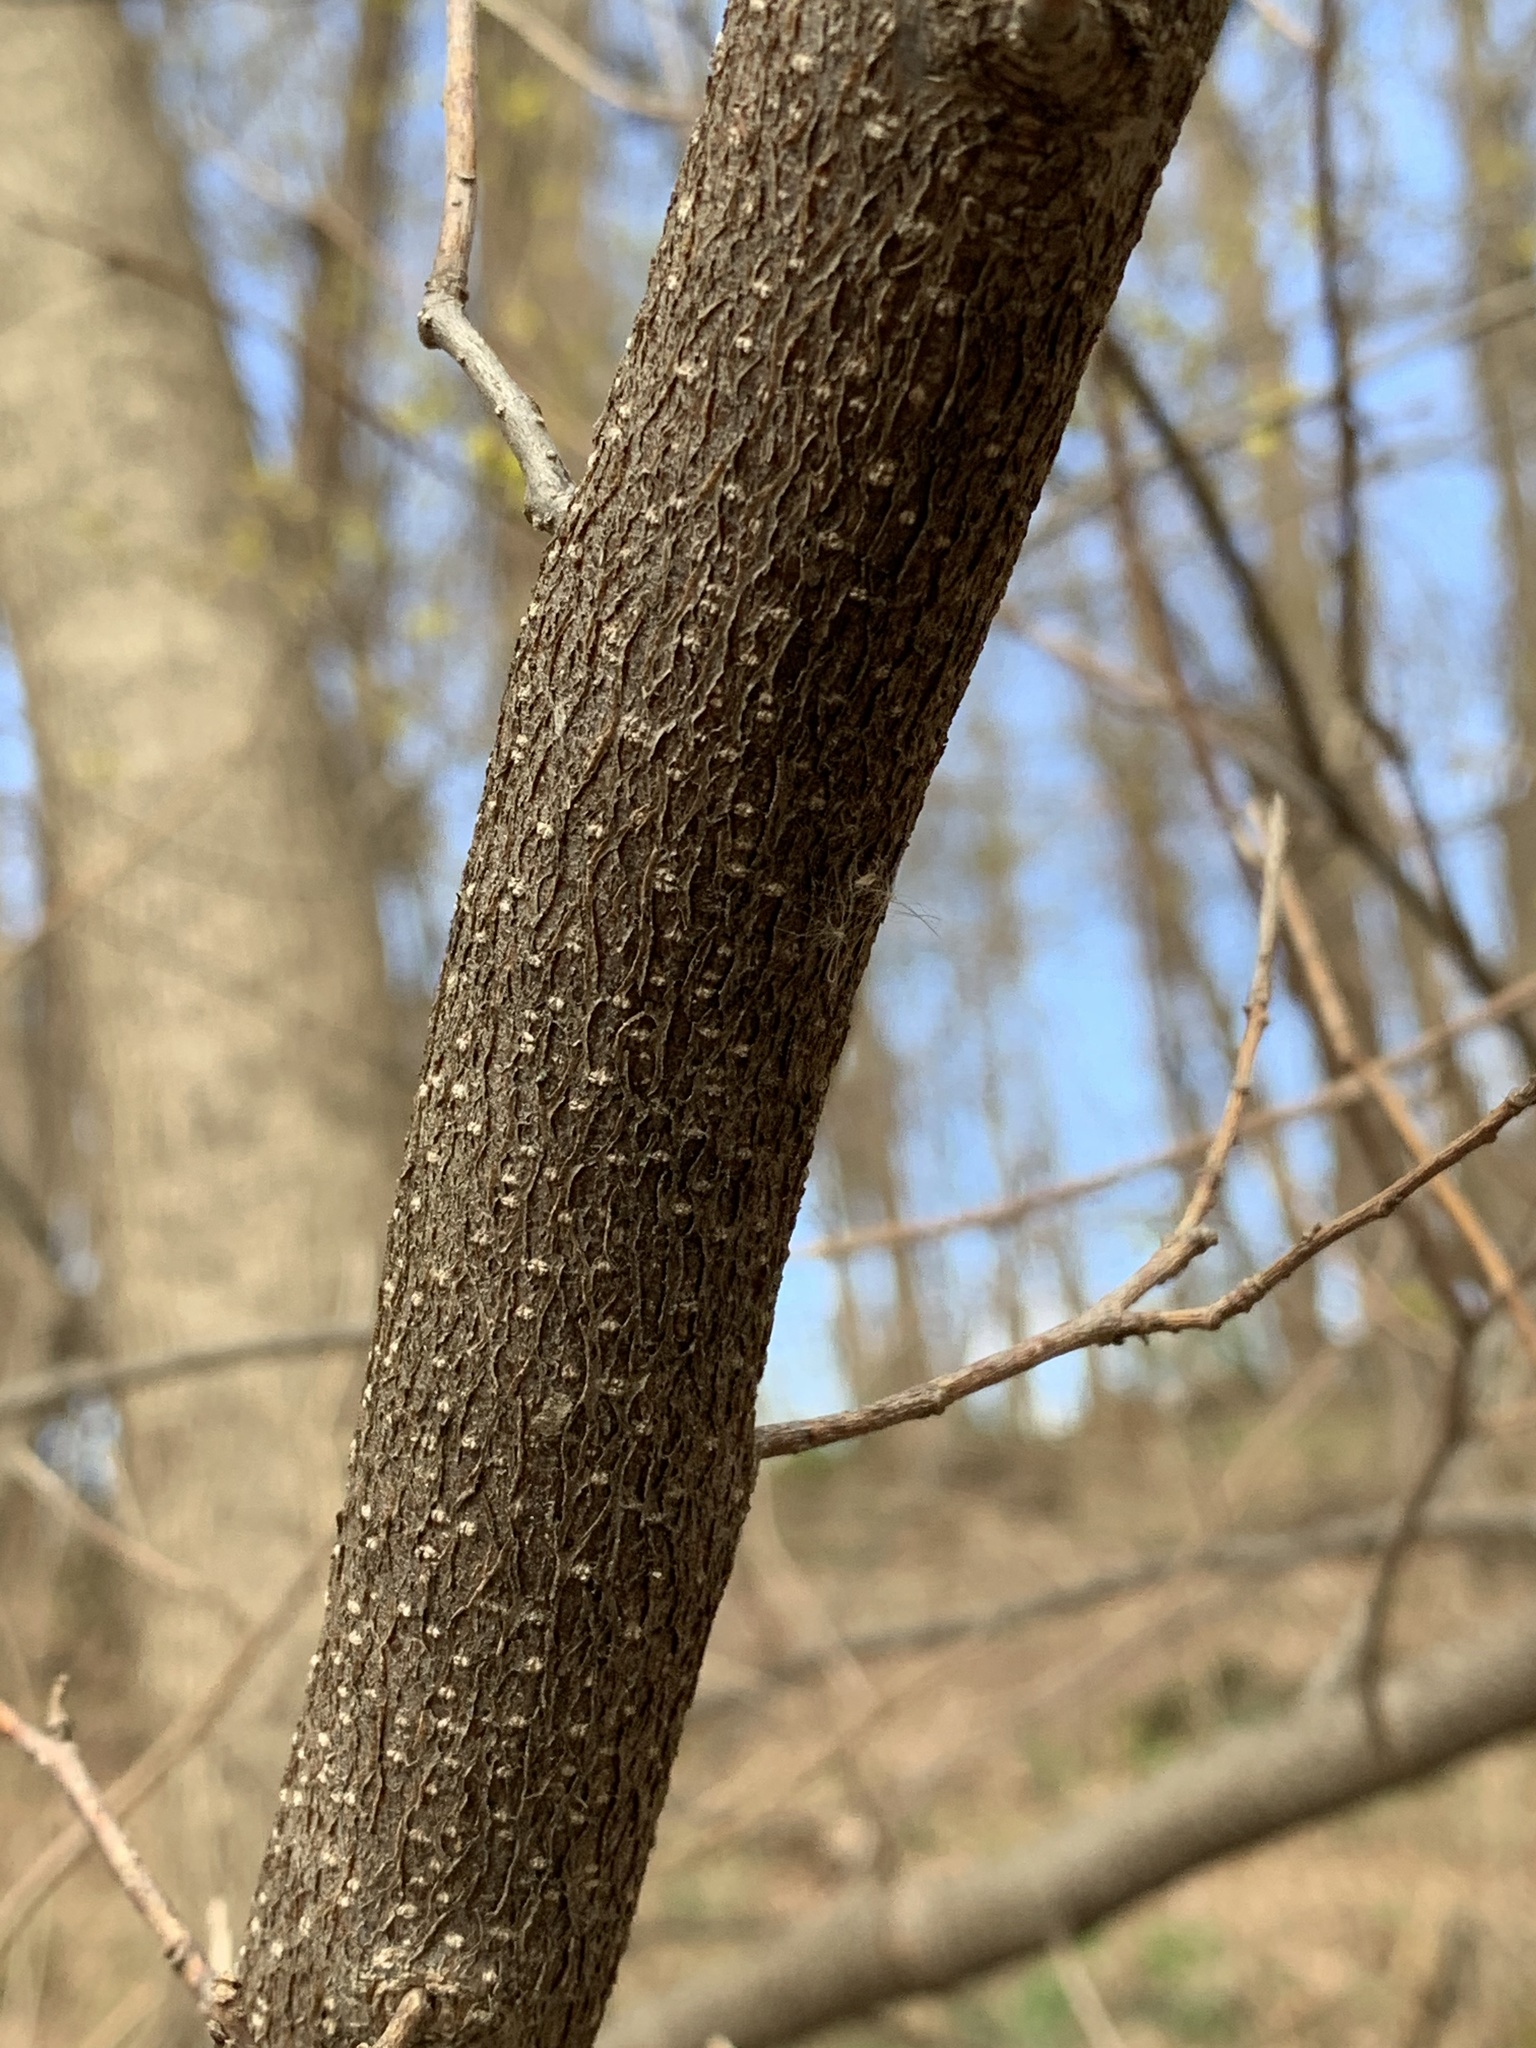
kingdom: Plantae
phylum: Tracheophyta
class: Magnoliopsida
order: Laurales
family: Lauraceae
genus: Lindera
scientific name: Lindera benzoin
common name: Spicebush
